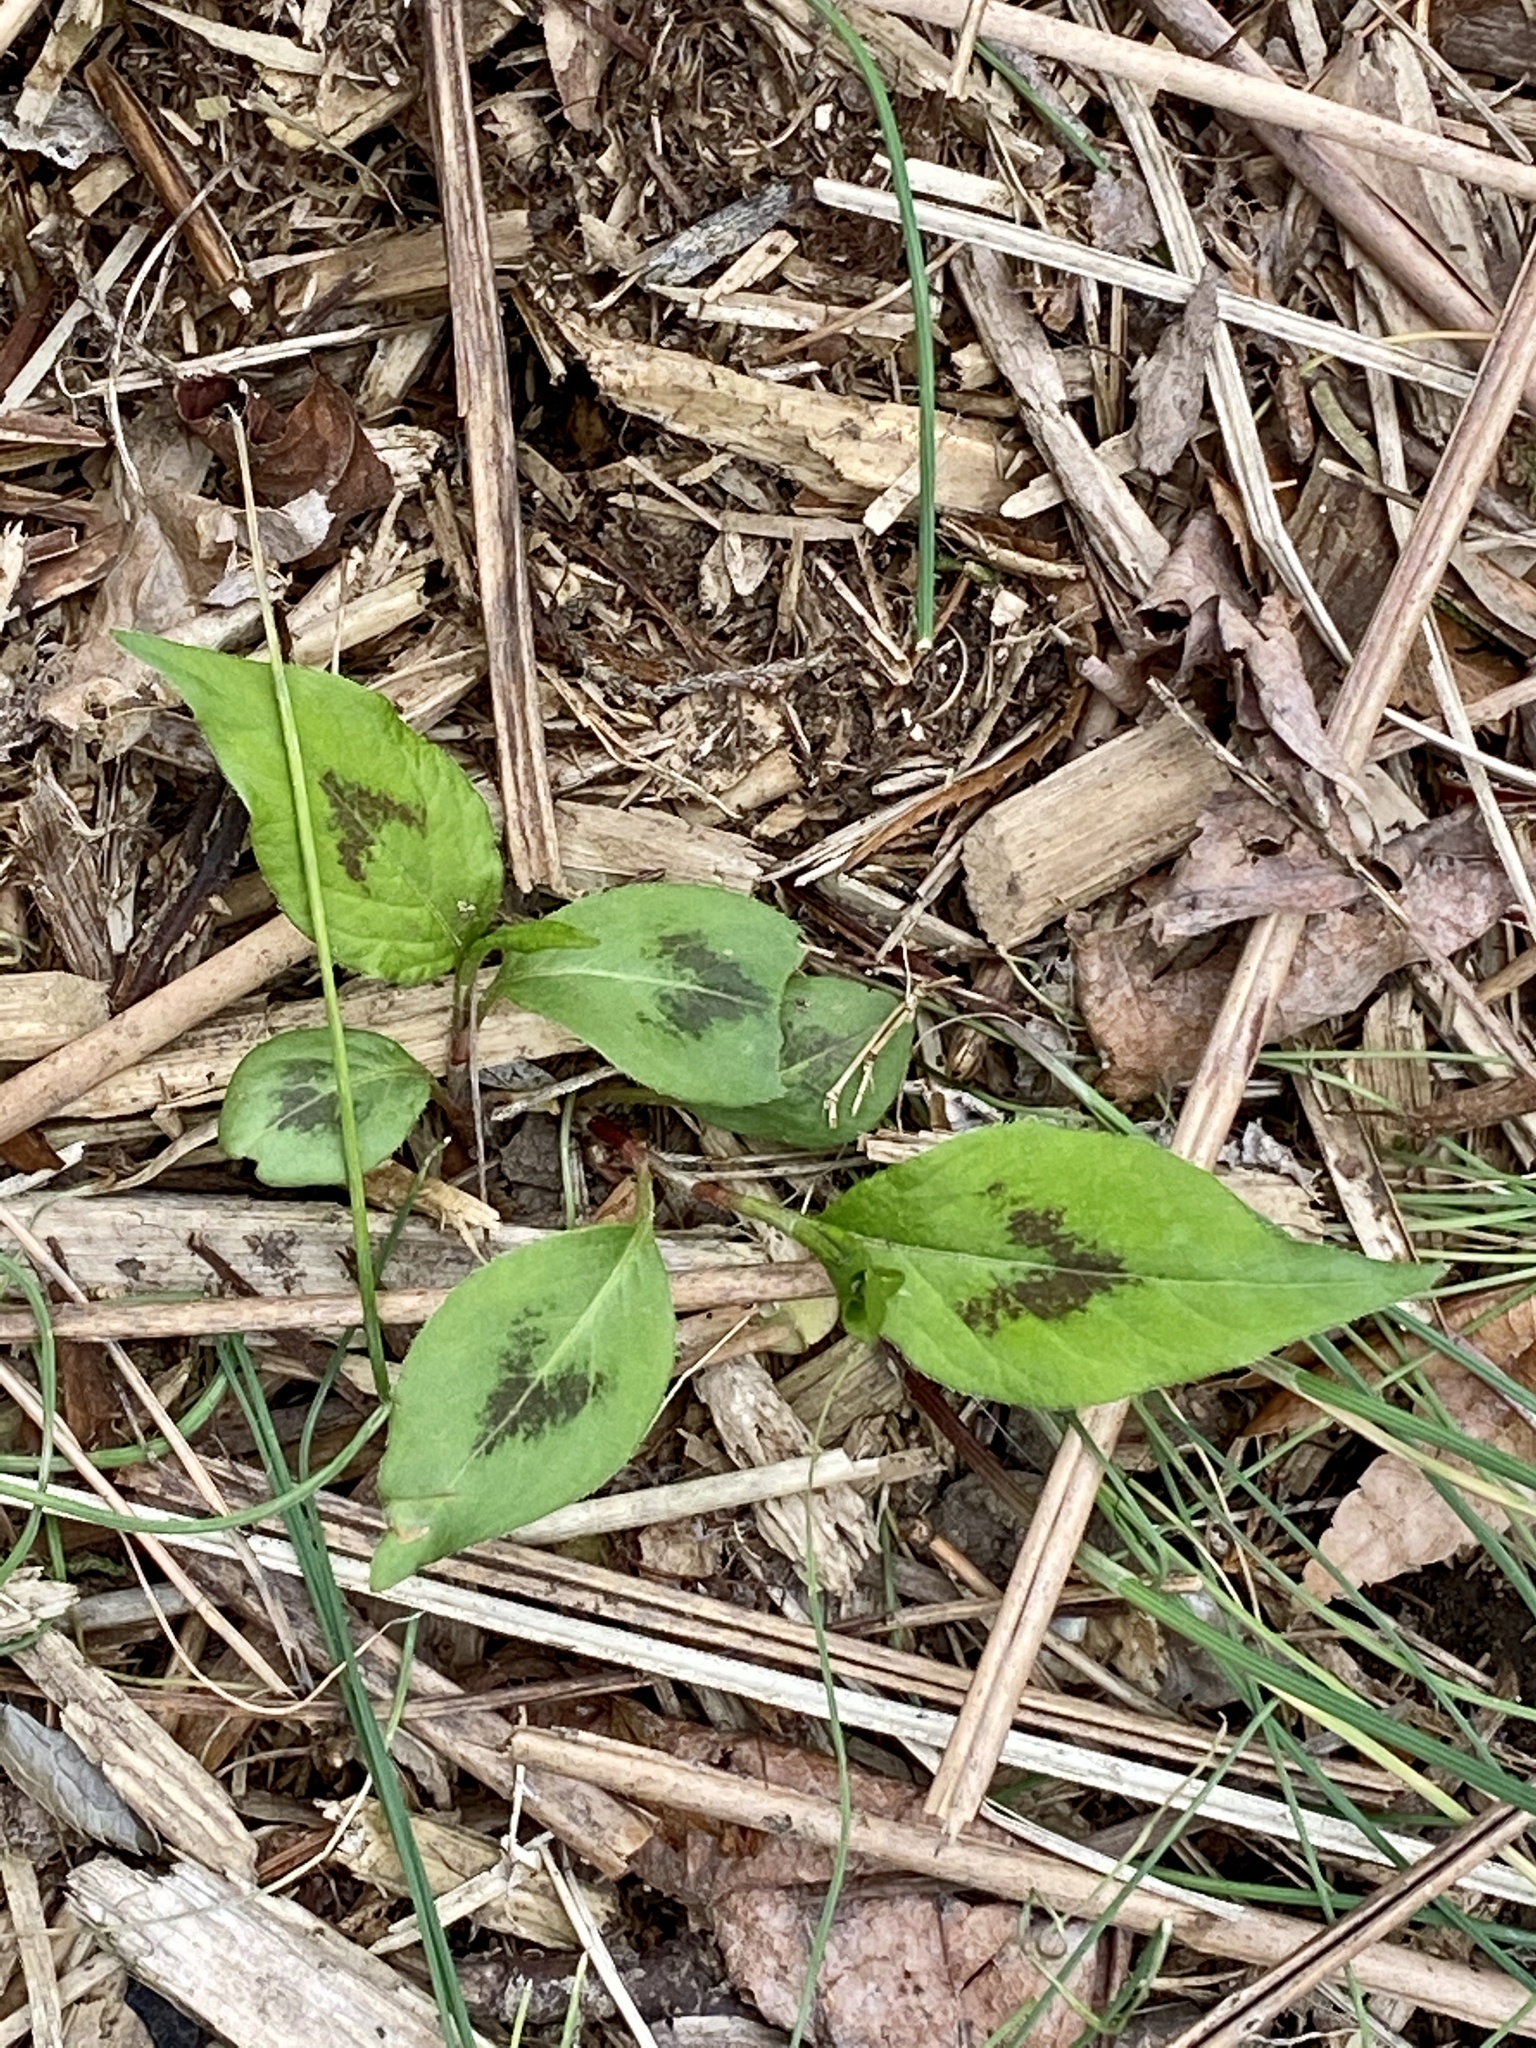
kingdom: Plantae
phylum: Tracheophyta
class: Magnoliopsida
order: Caryophyllales
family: Polygonaceae
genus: Persicaria
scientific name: Persicaria virginiana
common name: Jumpseed
